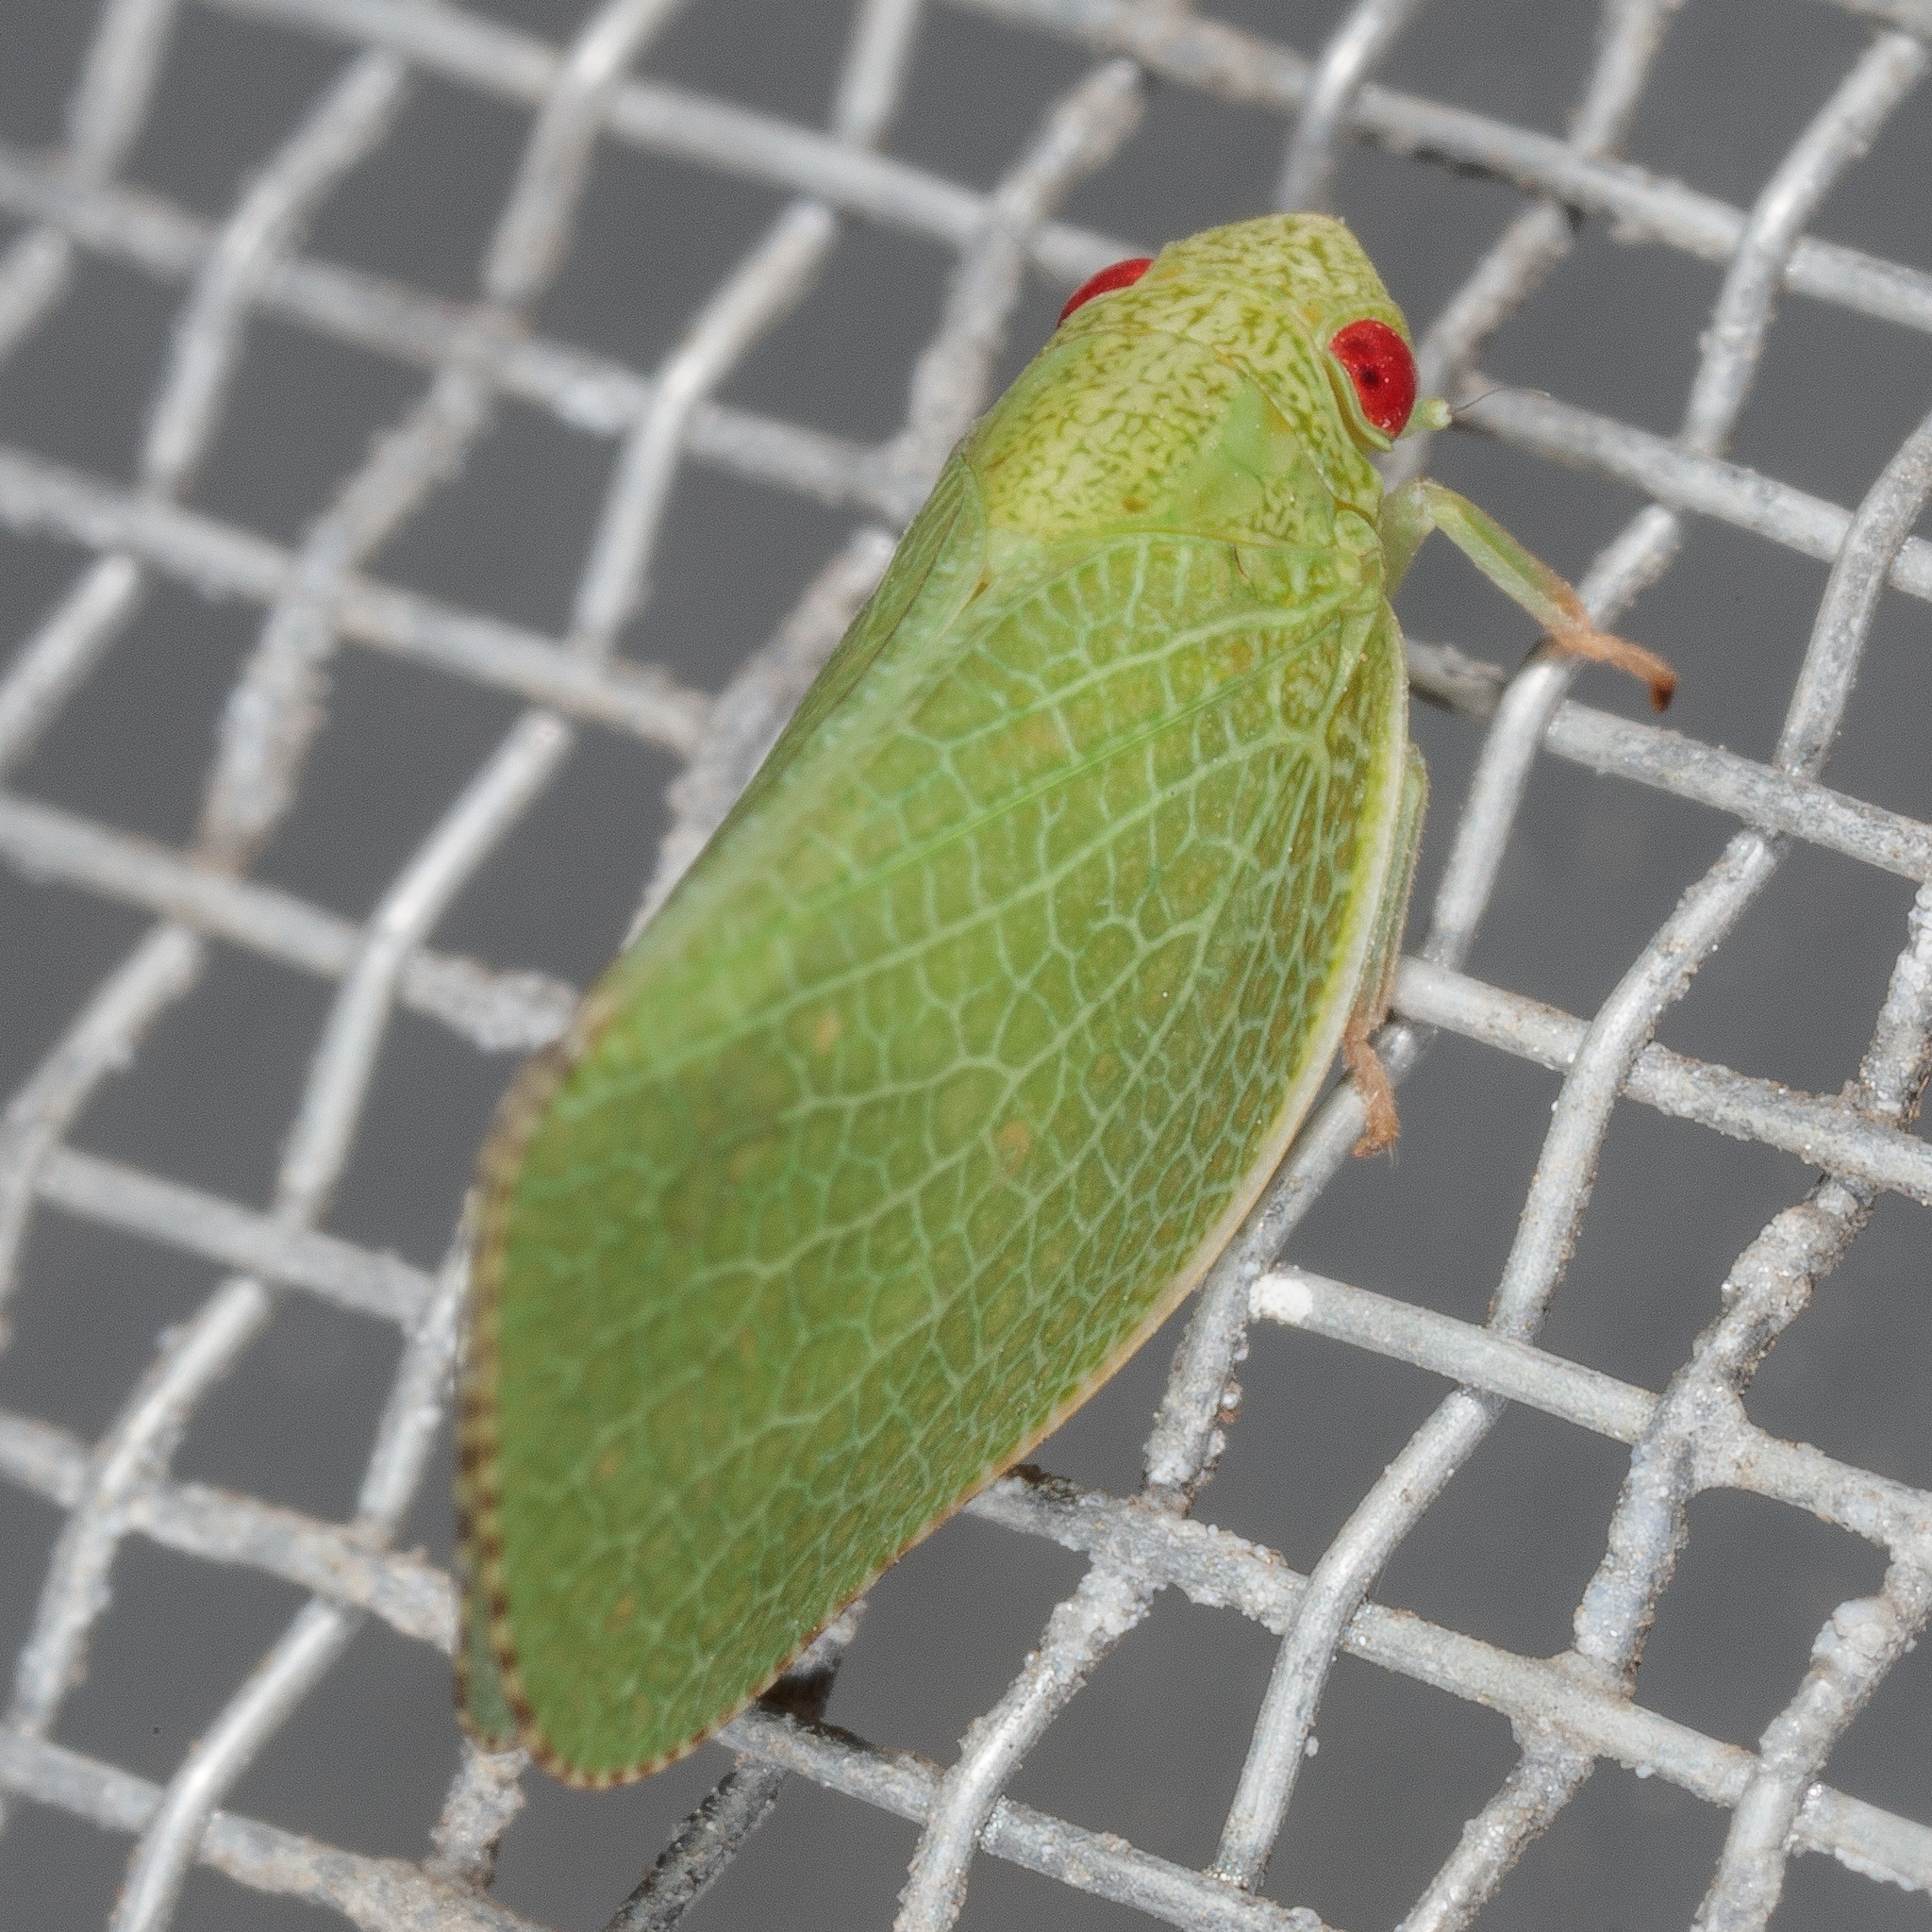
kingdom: Animalia
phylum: Arthropoda
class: Insecta
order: Hemiptera
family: Acanaloniidae
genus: Acanalonia
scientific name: Acanalonia conica
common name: Green cone-headed planthopper
